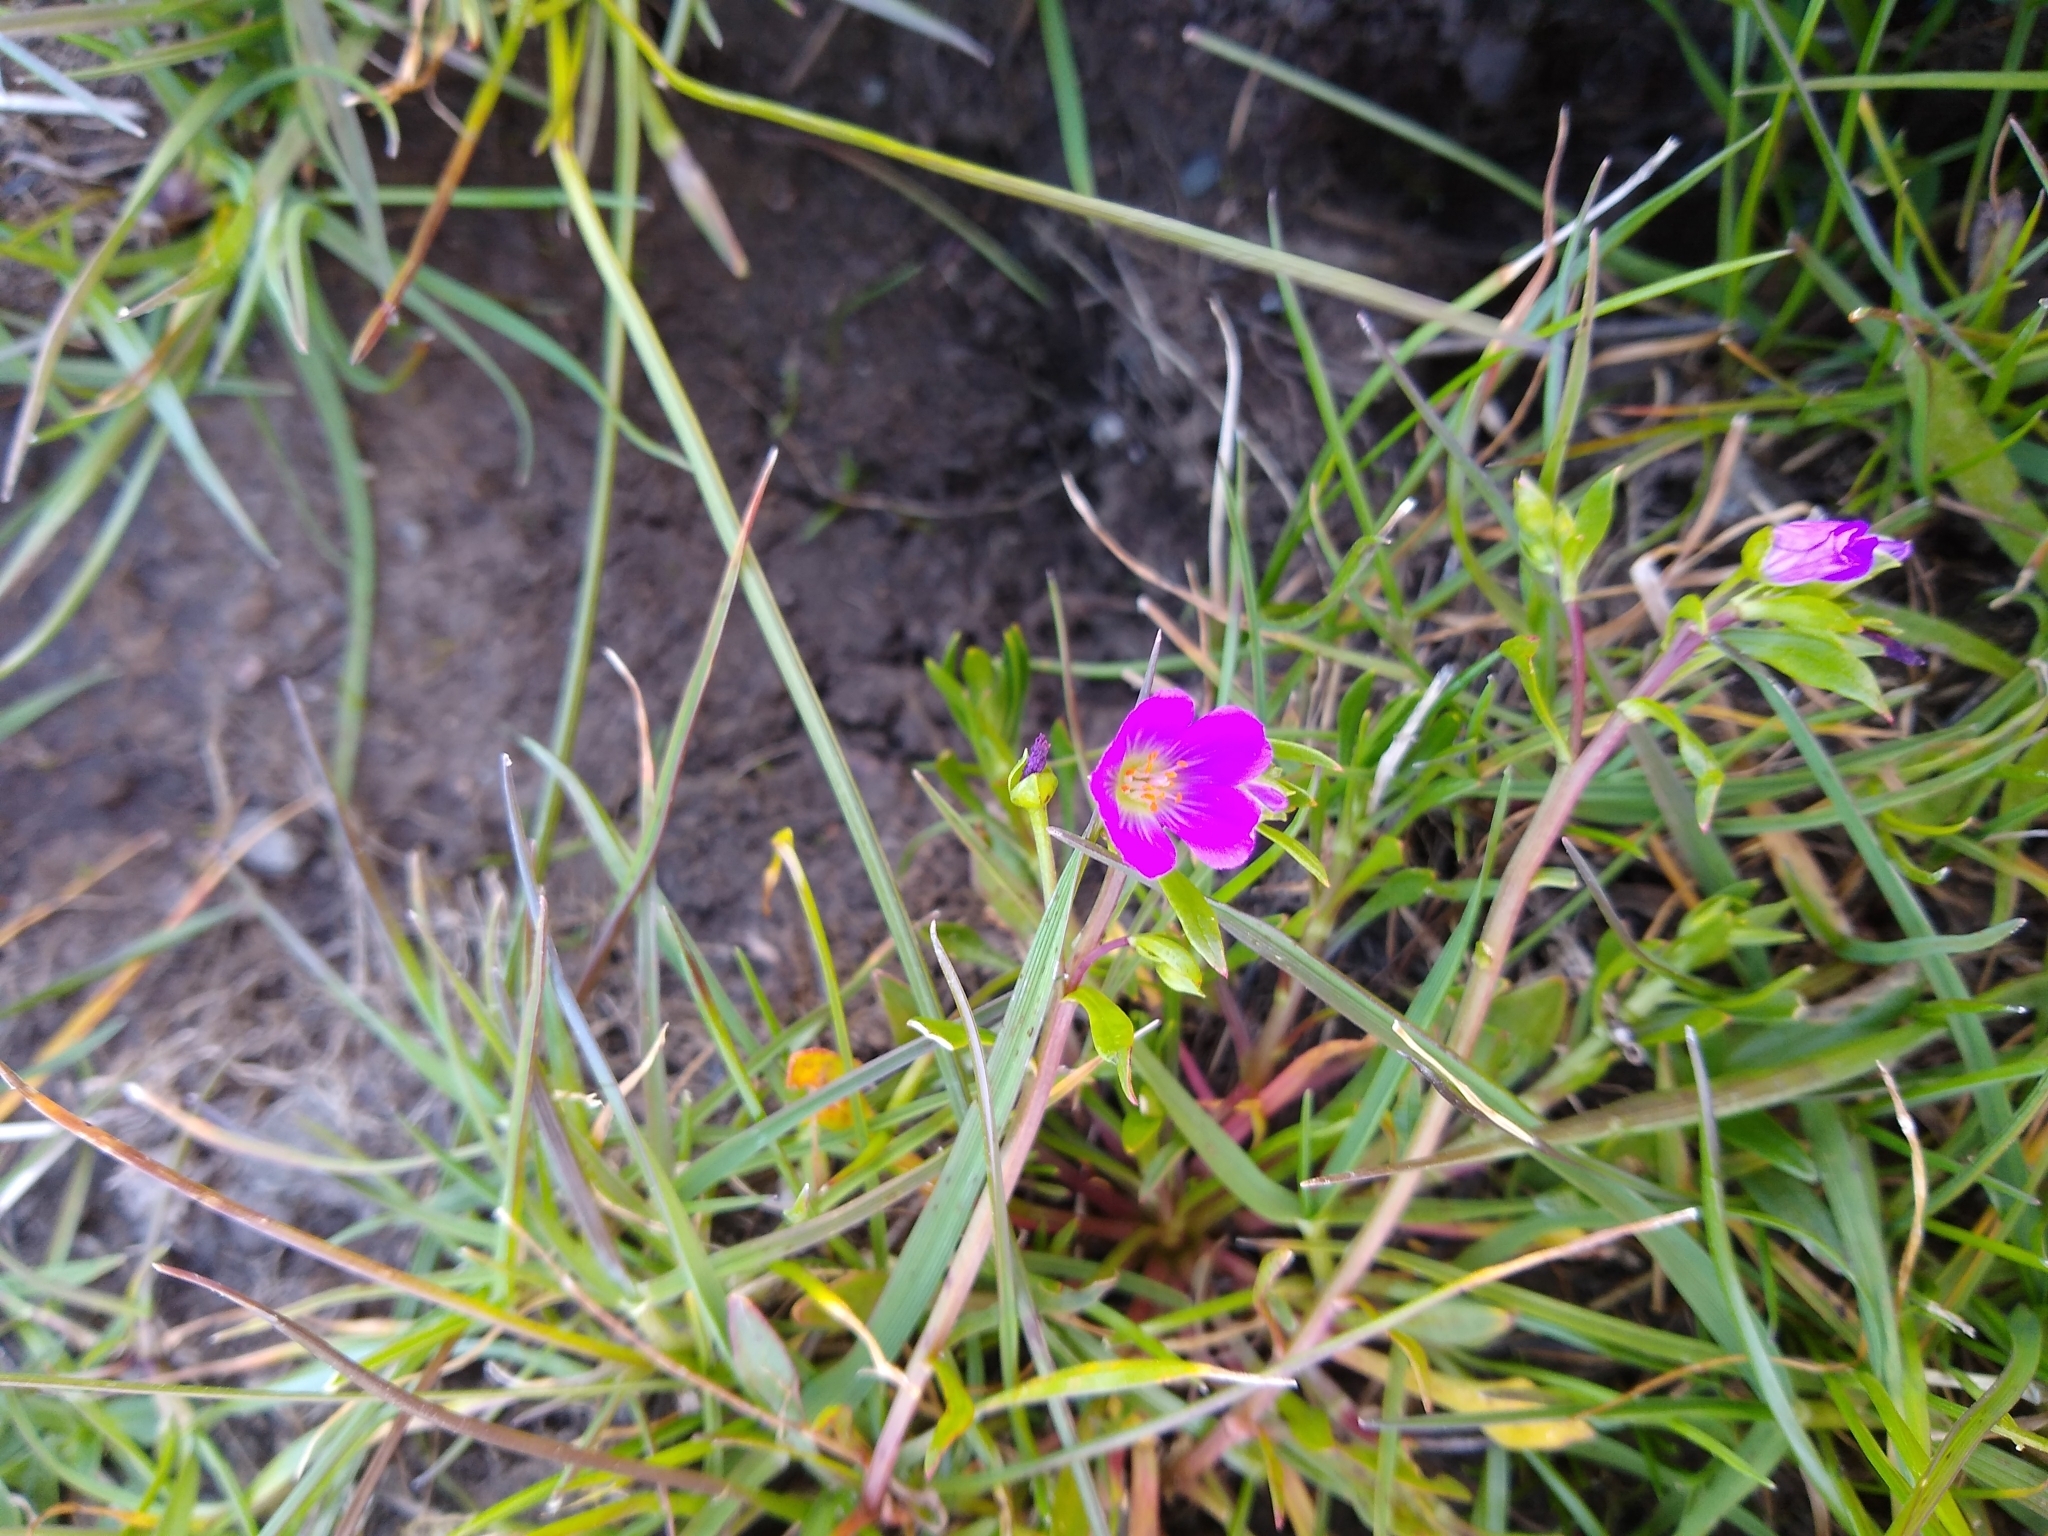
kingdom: Plantae
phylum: Tracheophyta
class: Magnoliopsida
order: Caryophyllales
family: Montiaceae
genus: Calandrinia
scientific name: Calandrinia menziesii
